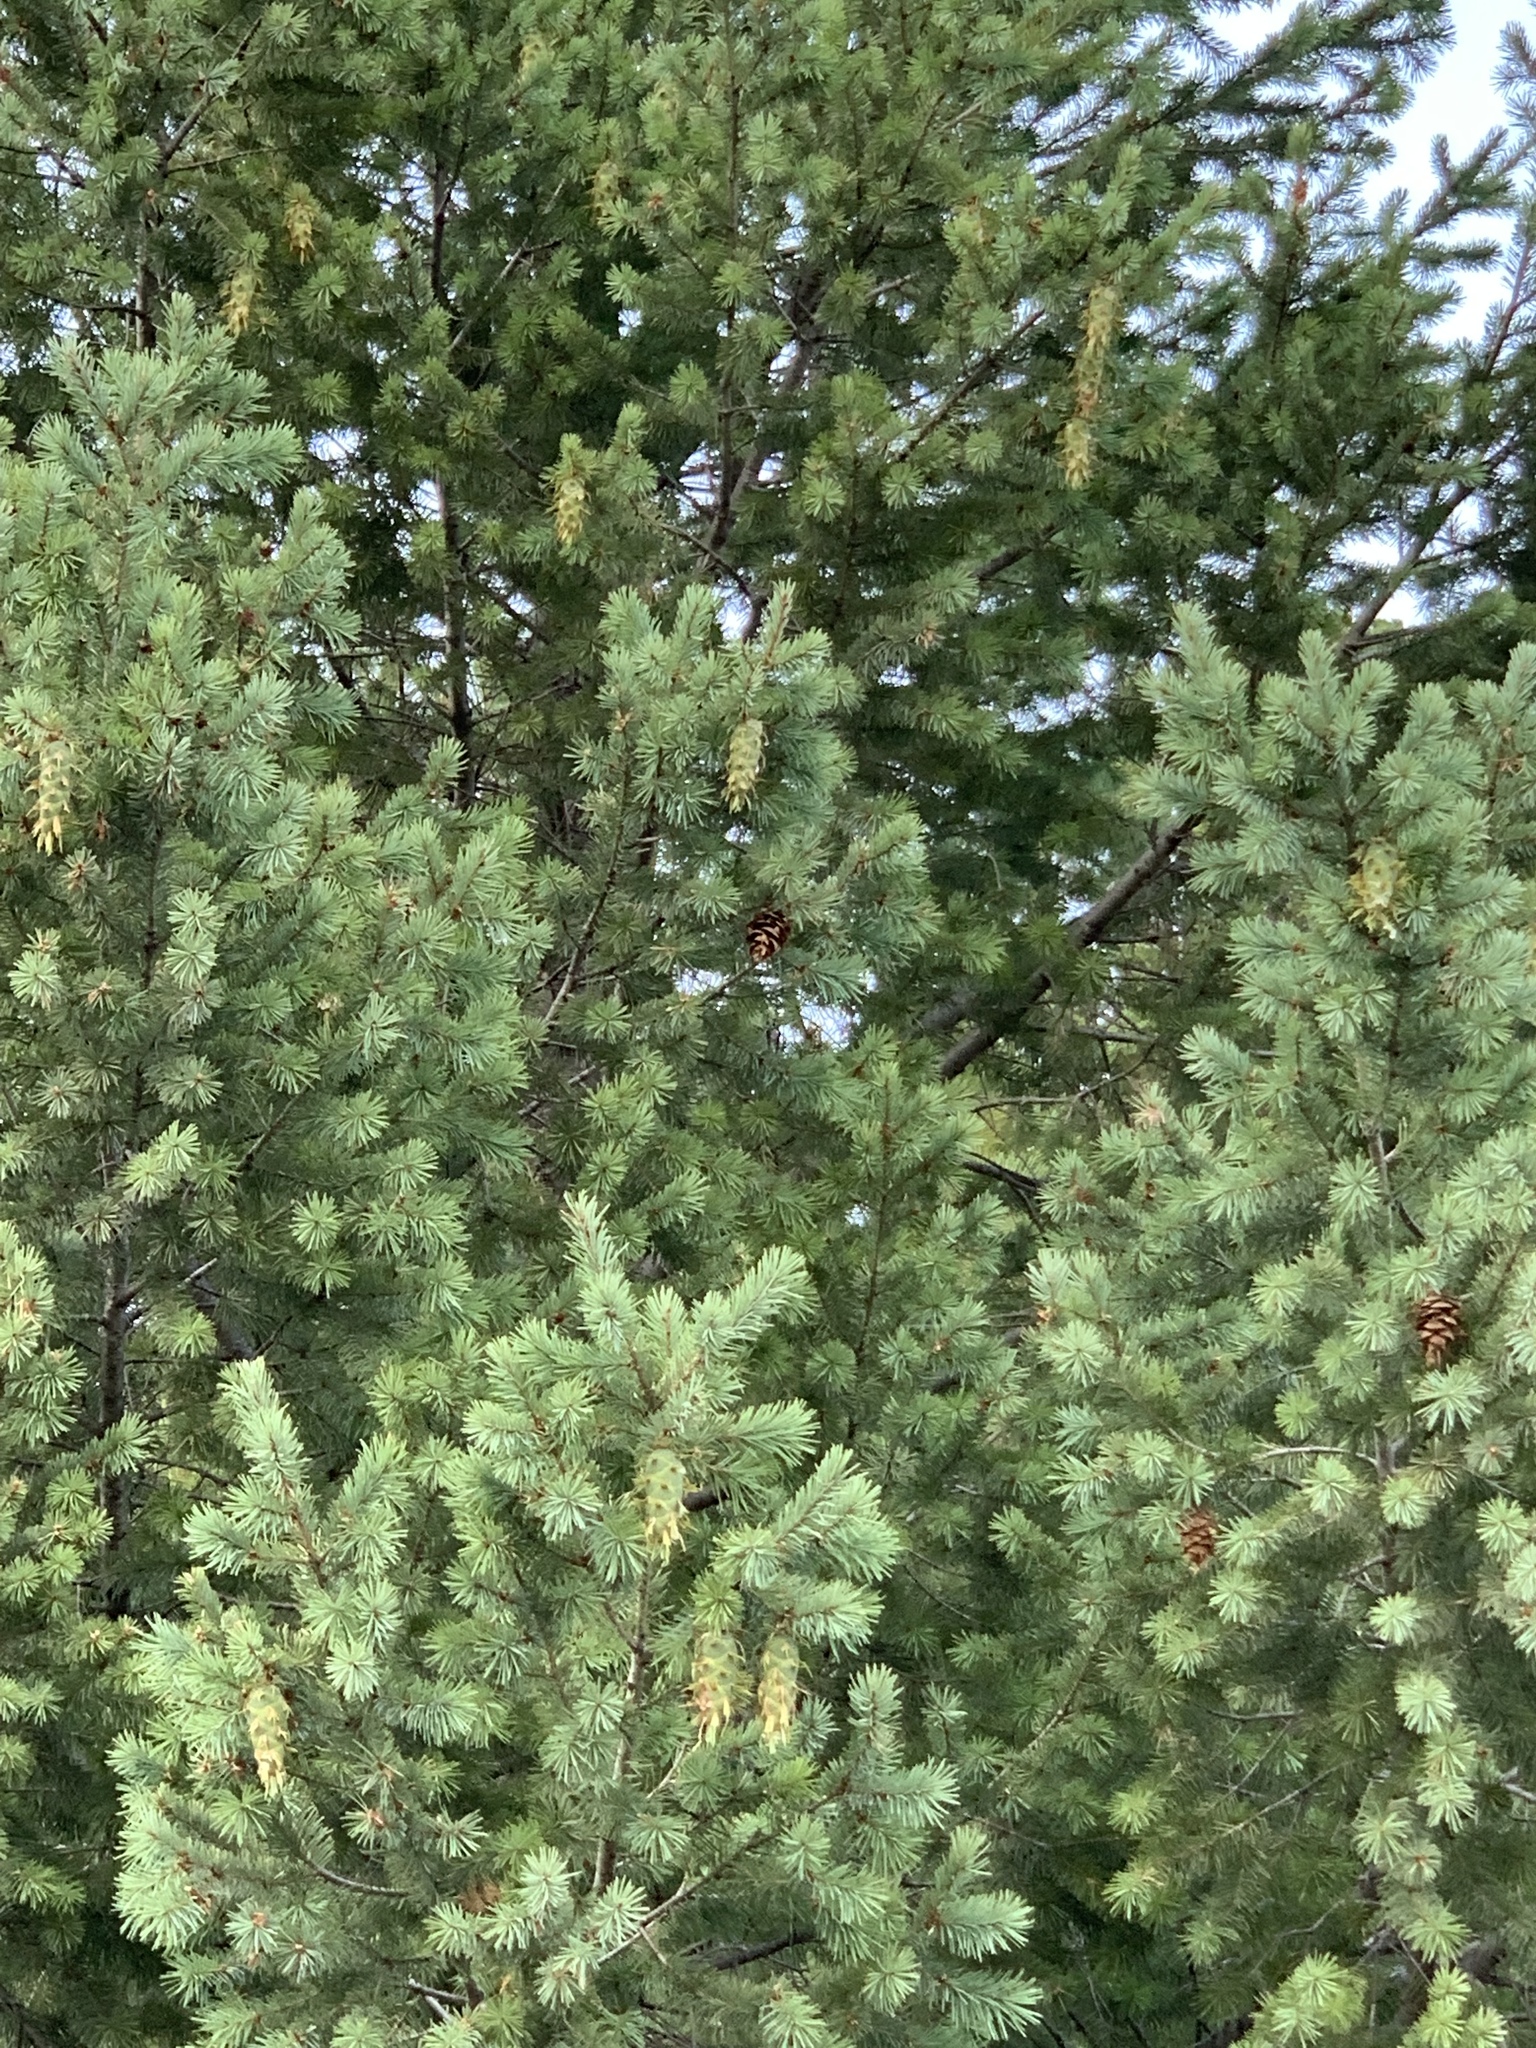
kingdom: Plantae
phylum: Tracheophyta
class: Pinopsida
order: Pinales
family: Pinaceae
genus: Pseudotsuga
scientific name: Pseudotsuga menziesii
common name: Douglas fir
